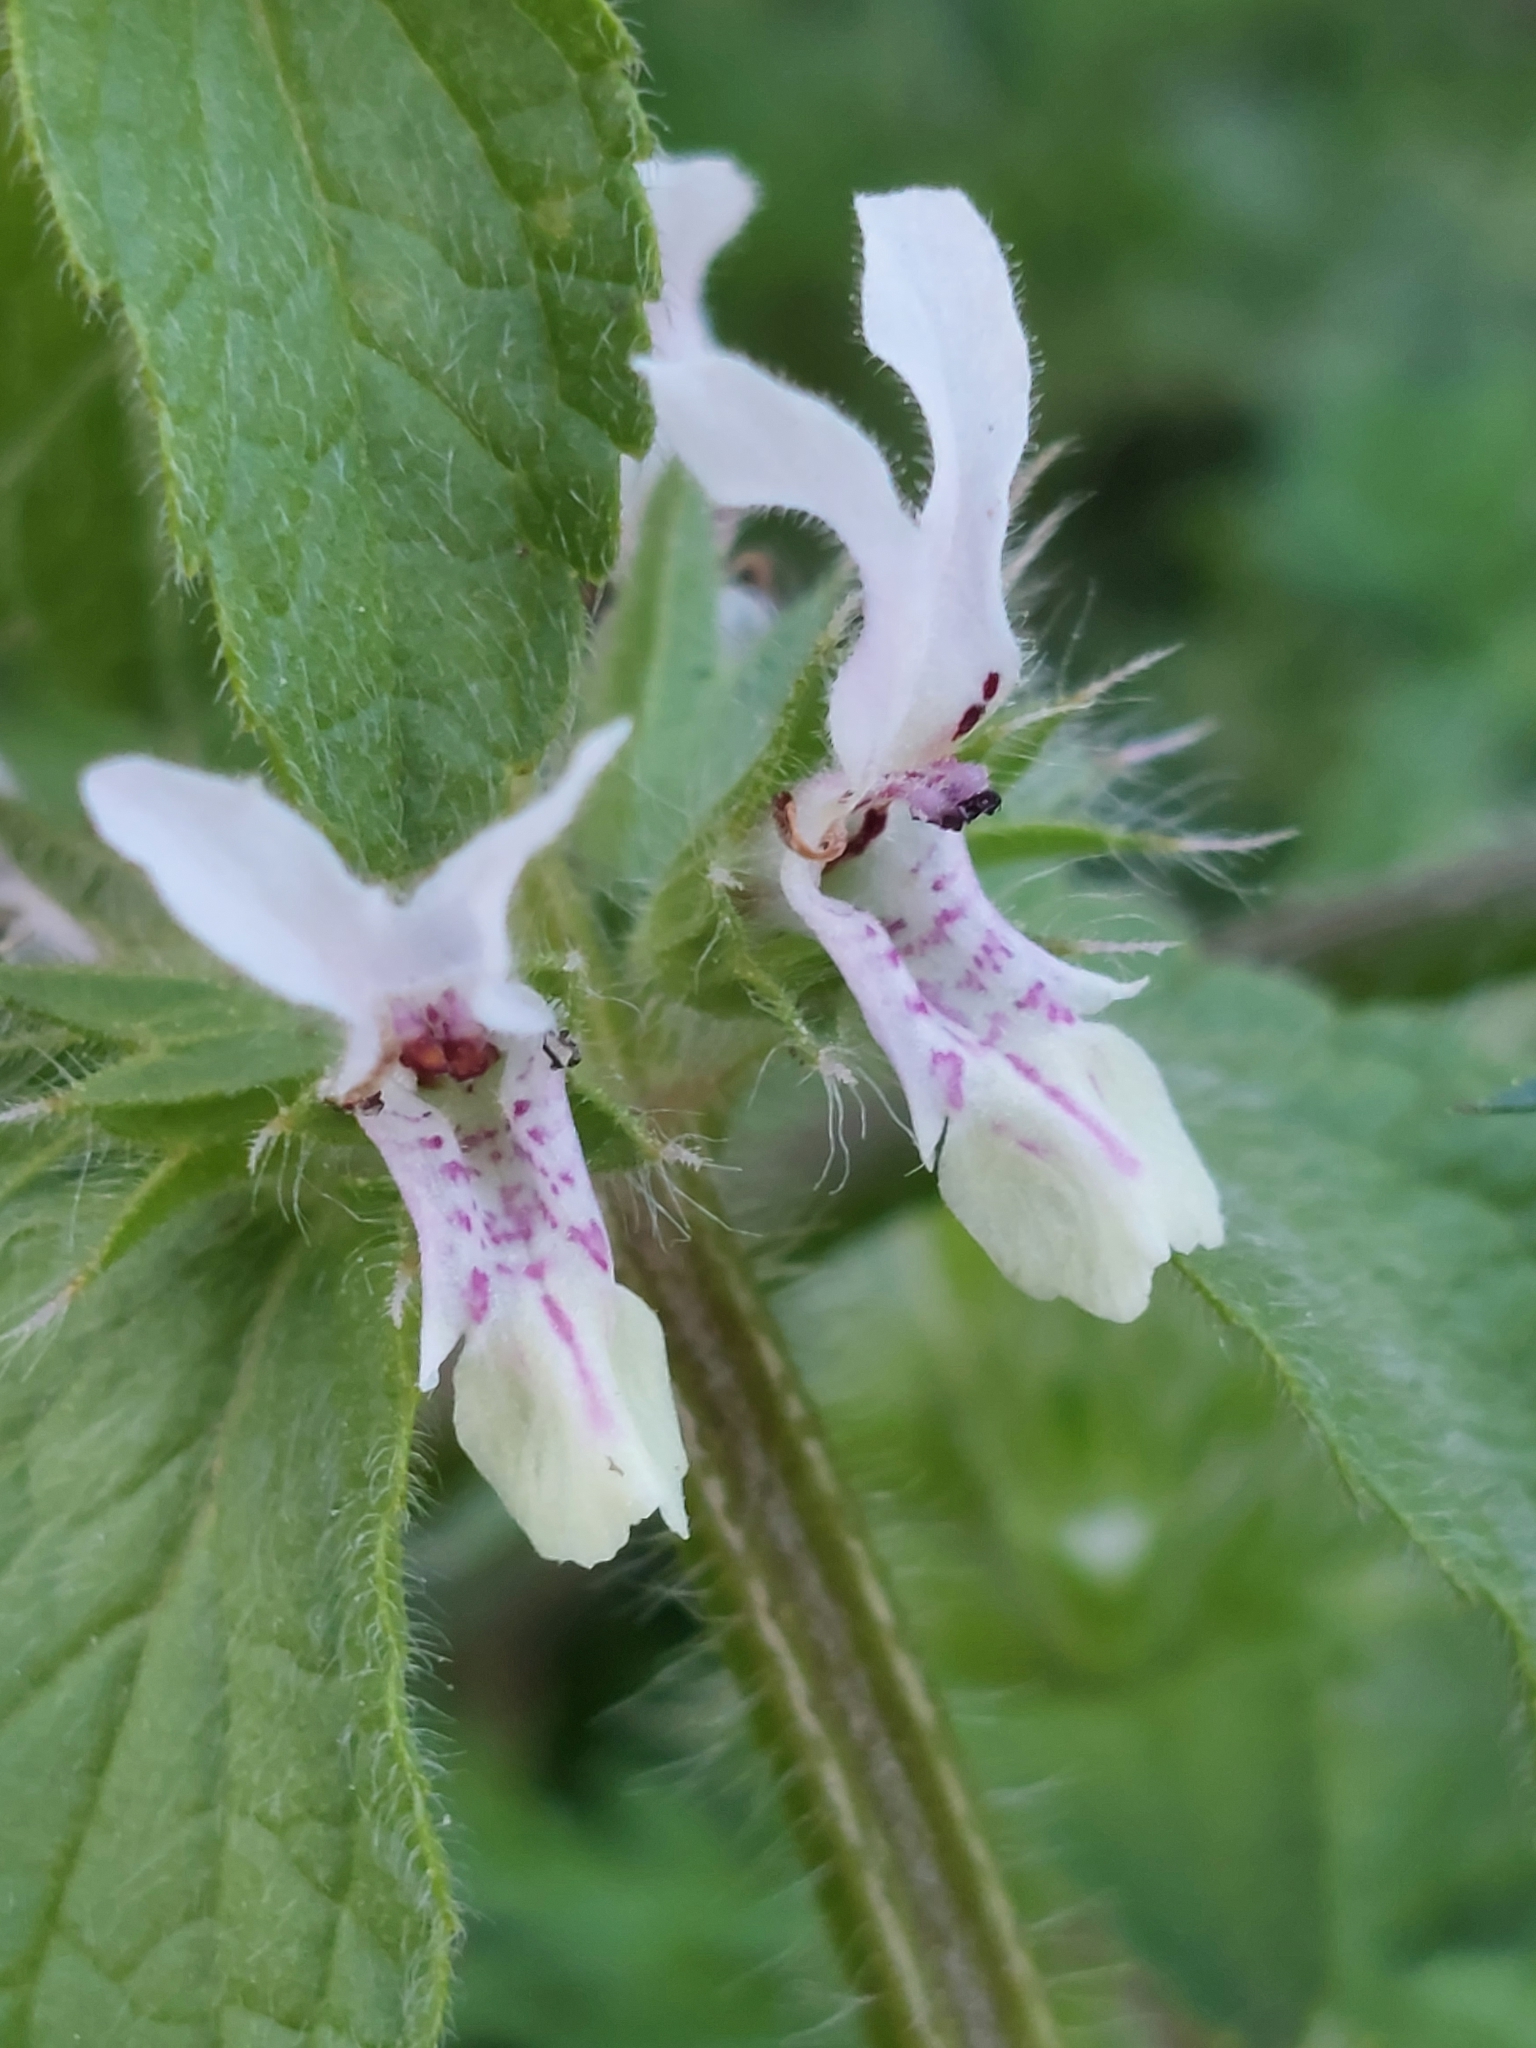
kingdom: Plantae
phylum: Tracheophyta
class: Magnoliopsida
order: Lamiales
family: Lamiaceae
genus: Stachys
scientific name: Stachys ocymastrum
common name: Italian hedgenettle
